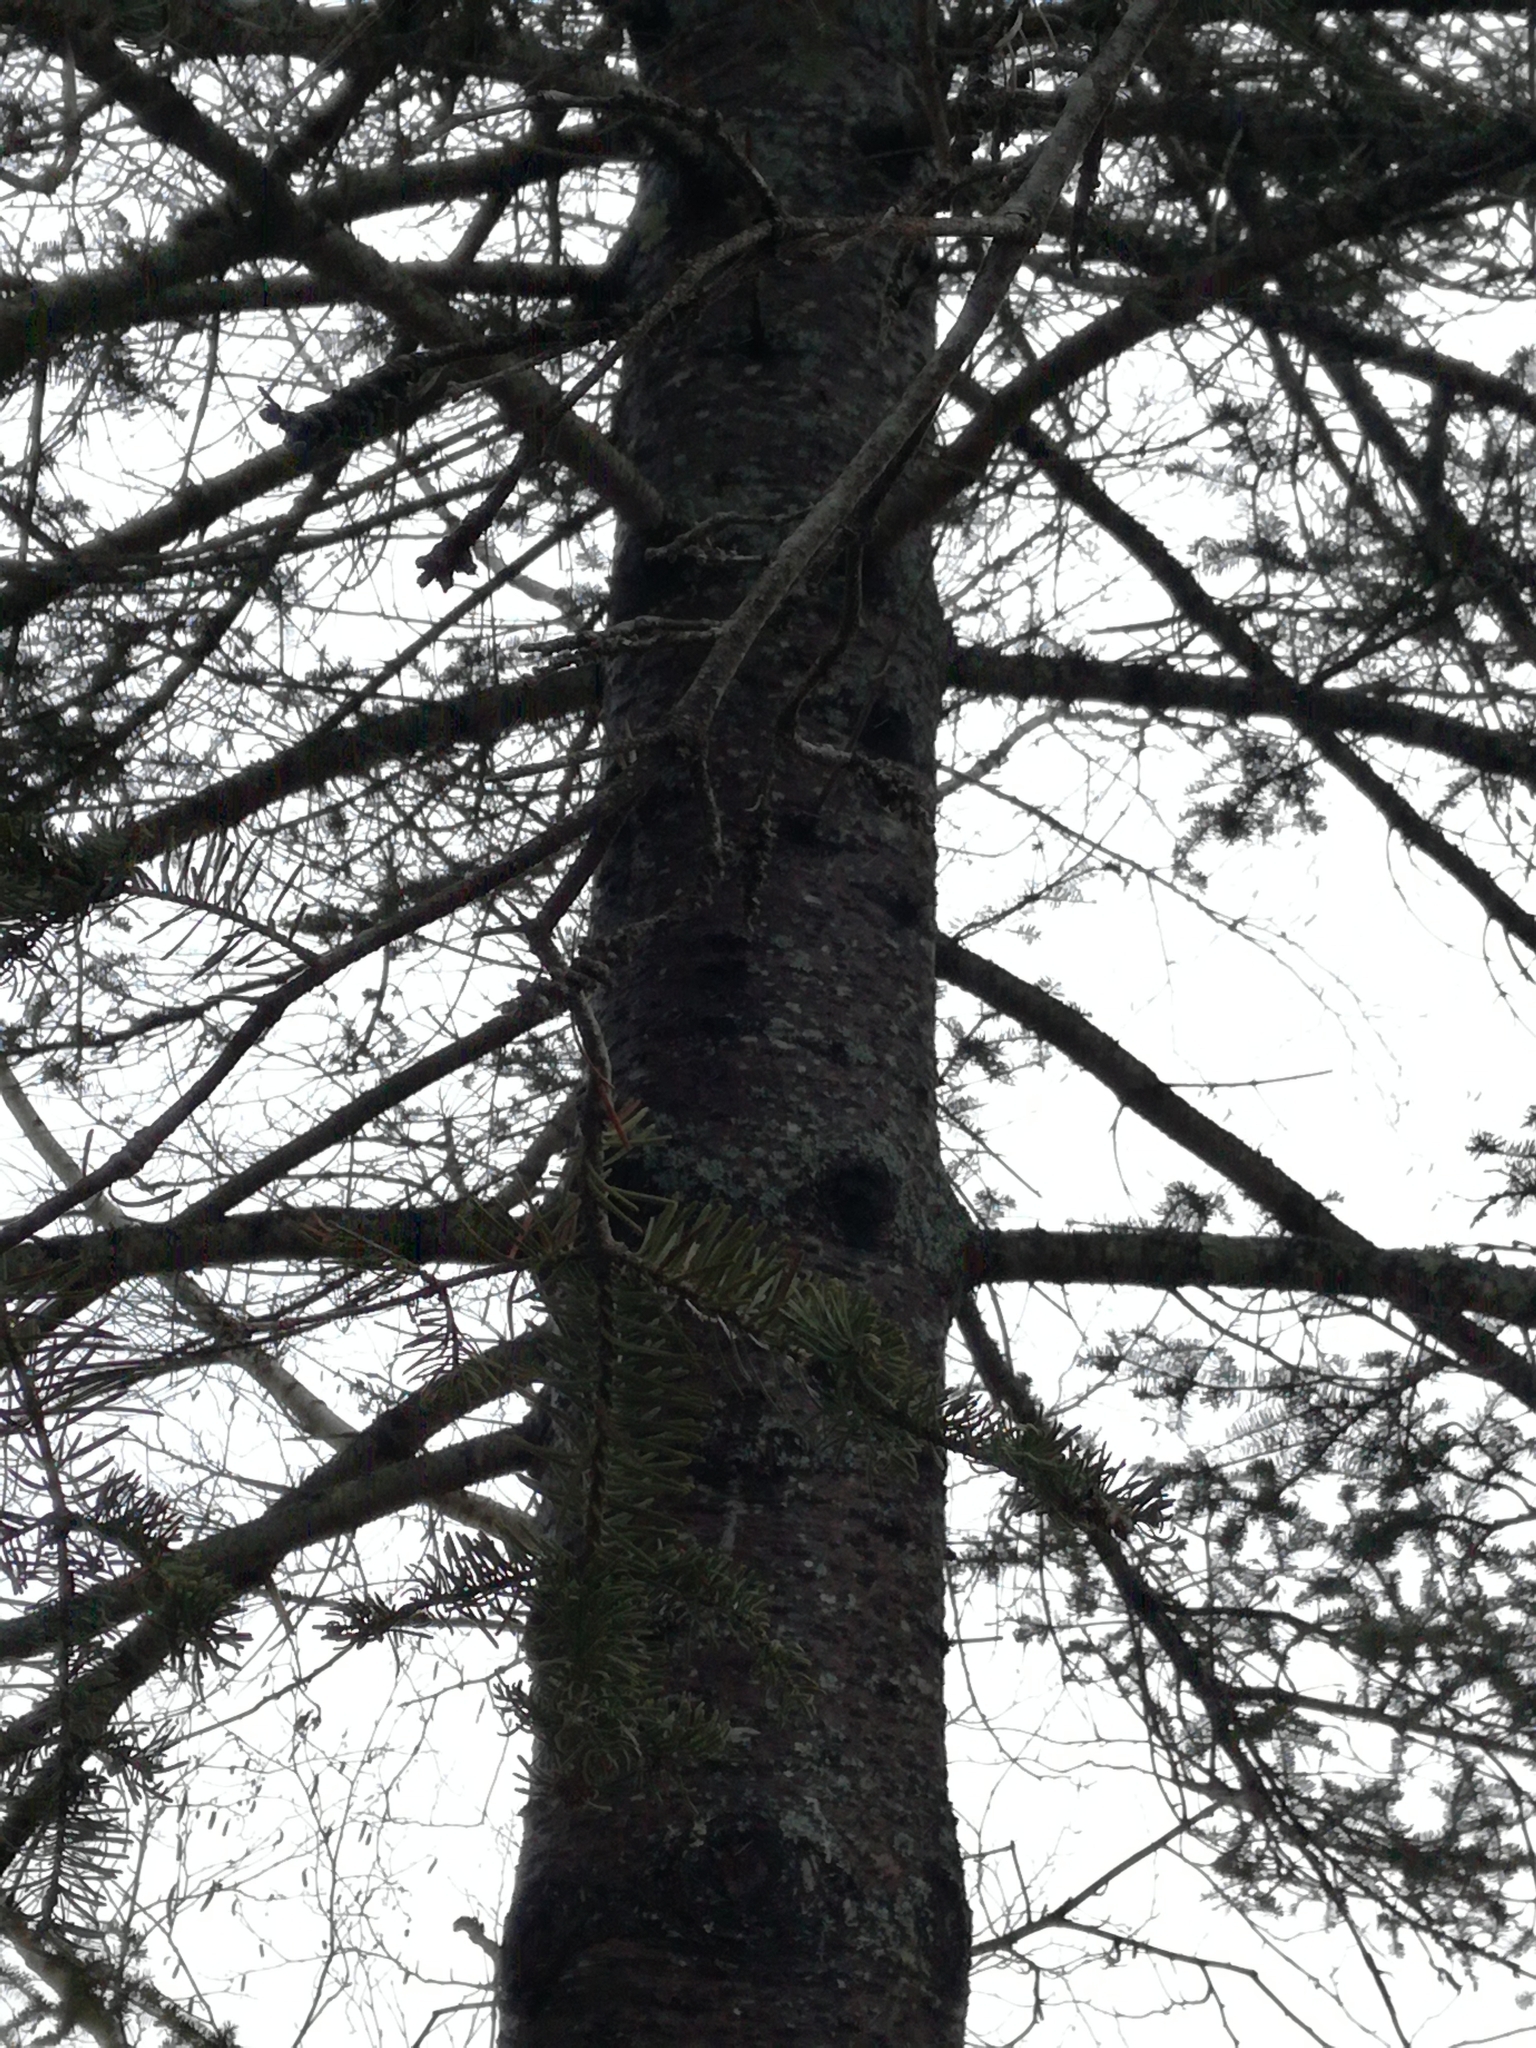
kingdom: Plantae
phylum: Tracheophyta
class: Pinopsida
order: Pinales
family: Pinaceae
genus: Picea
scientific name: Picea glauca
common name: White spruce
